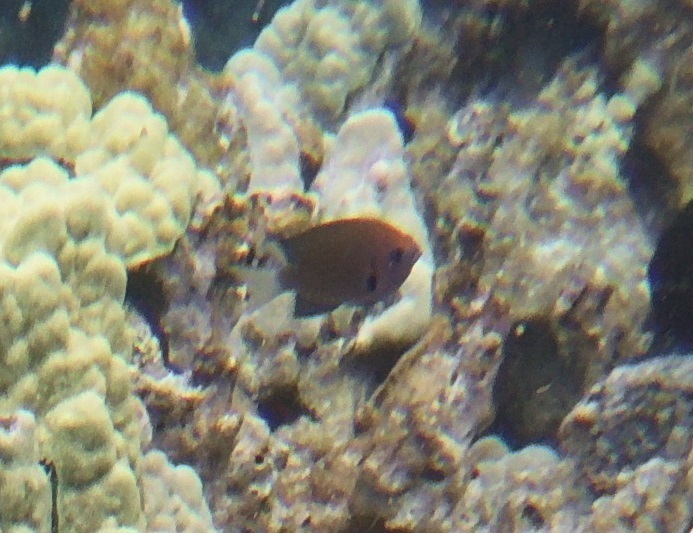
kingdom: Animalia
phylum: Chordata
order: Perciformes
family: Pomacentridae
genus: Chromis
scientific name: Chromis hanui
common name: Chocolate dip damsel
